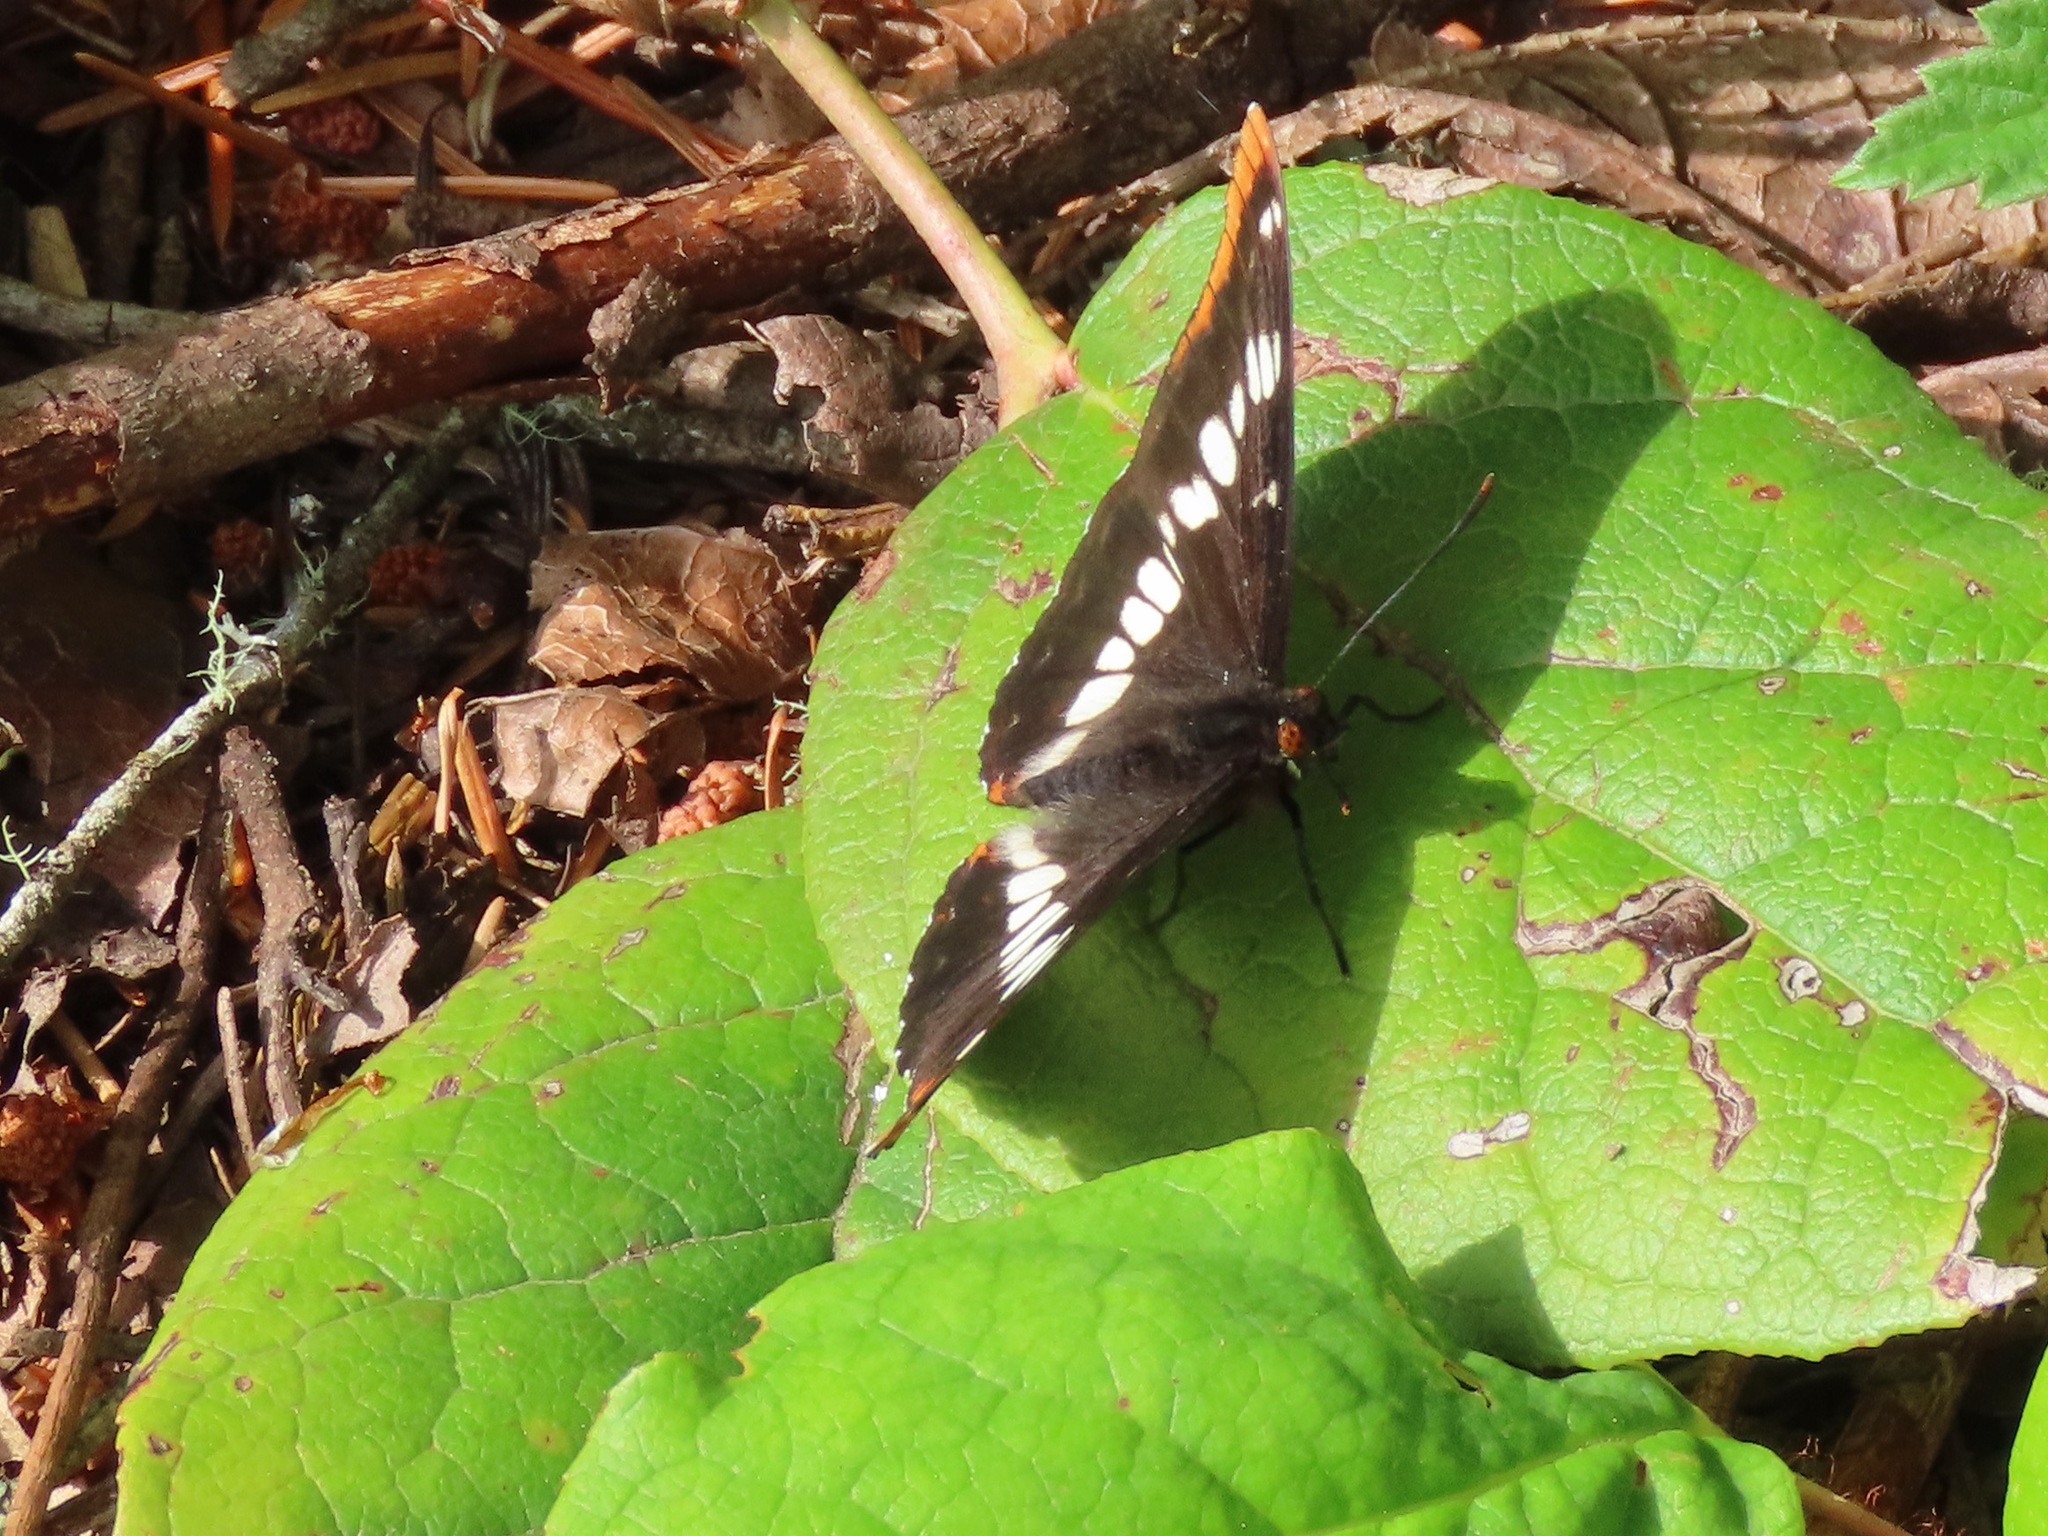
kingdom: Animalia
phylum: Arthropoda
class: Insecta
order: Lepidoptera
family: Nymphalidae
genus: Limenitis
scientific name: Limenitis lorquini
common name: Lorquin's admiral
